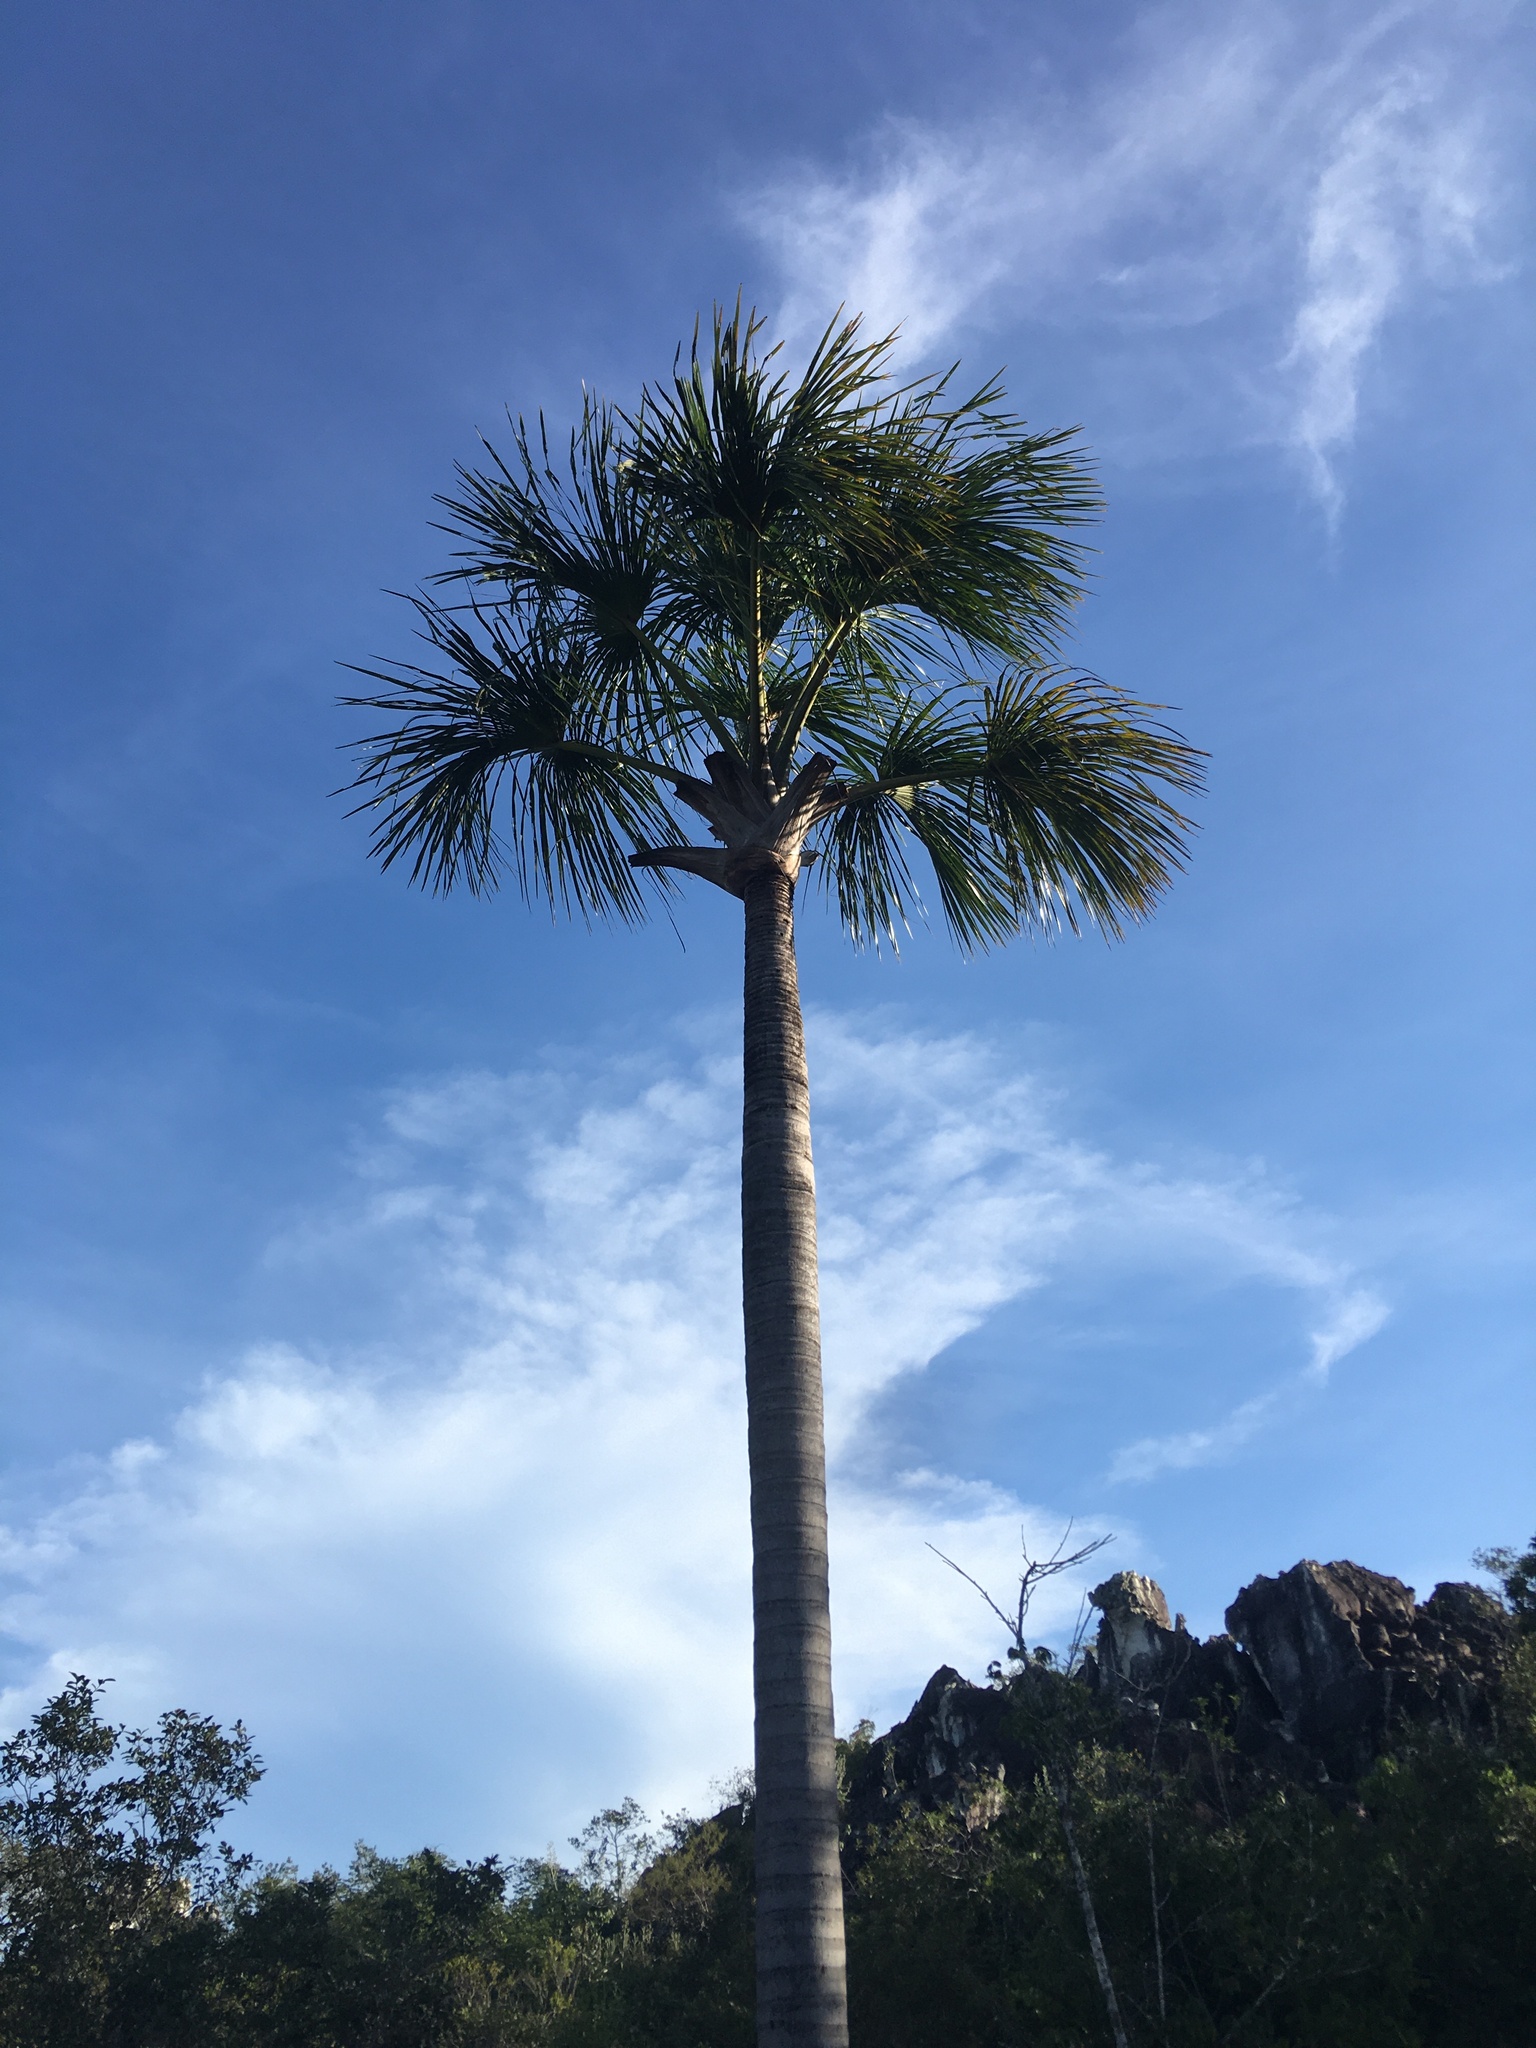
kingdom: Plantae
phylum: Tracheophyta
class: Liliopsida
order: Arecales
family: Arecaceae
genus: Mauritia
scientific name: Mauritia flexuosa
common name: Tree-of-life
